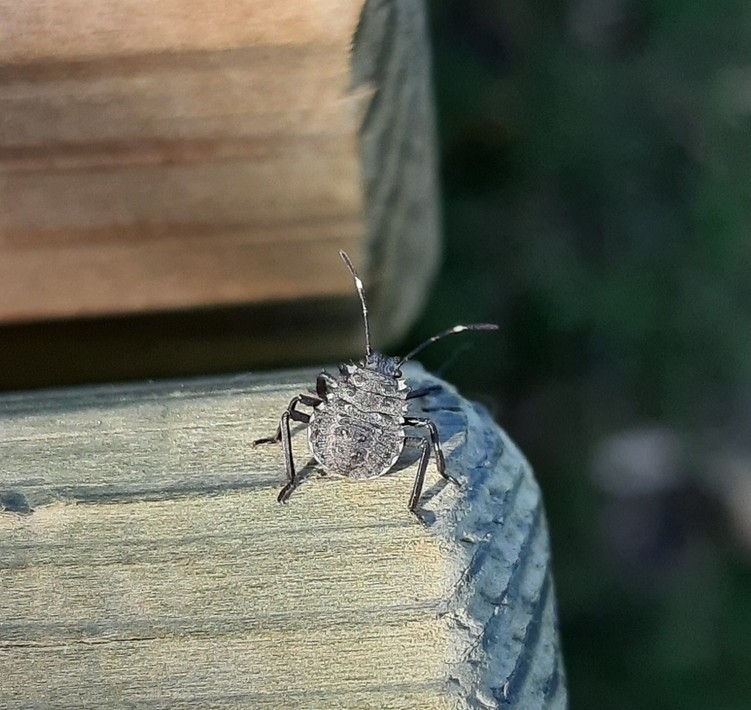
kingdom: Animalia
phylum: Arthropoda
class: Insecta
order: Hemiptera
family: Pentatomidae
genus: Halyomorpha
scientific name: Halyomorpha halys
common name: Brown marmorated stink bug
